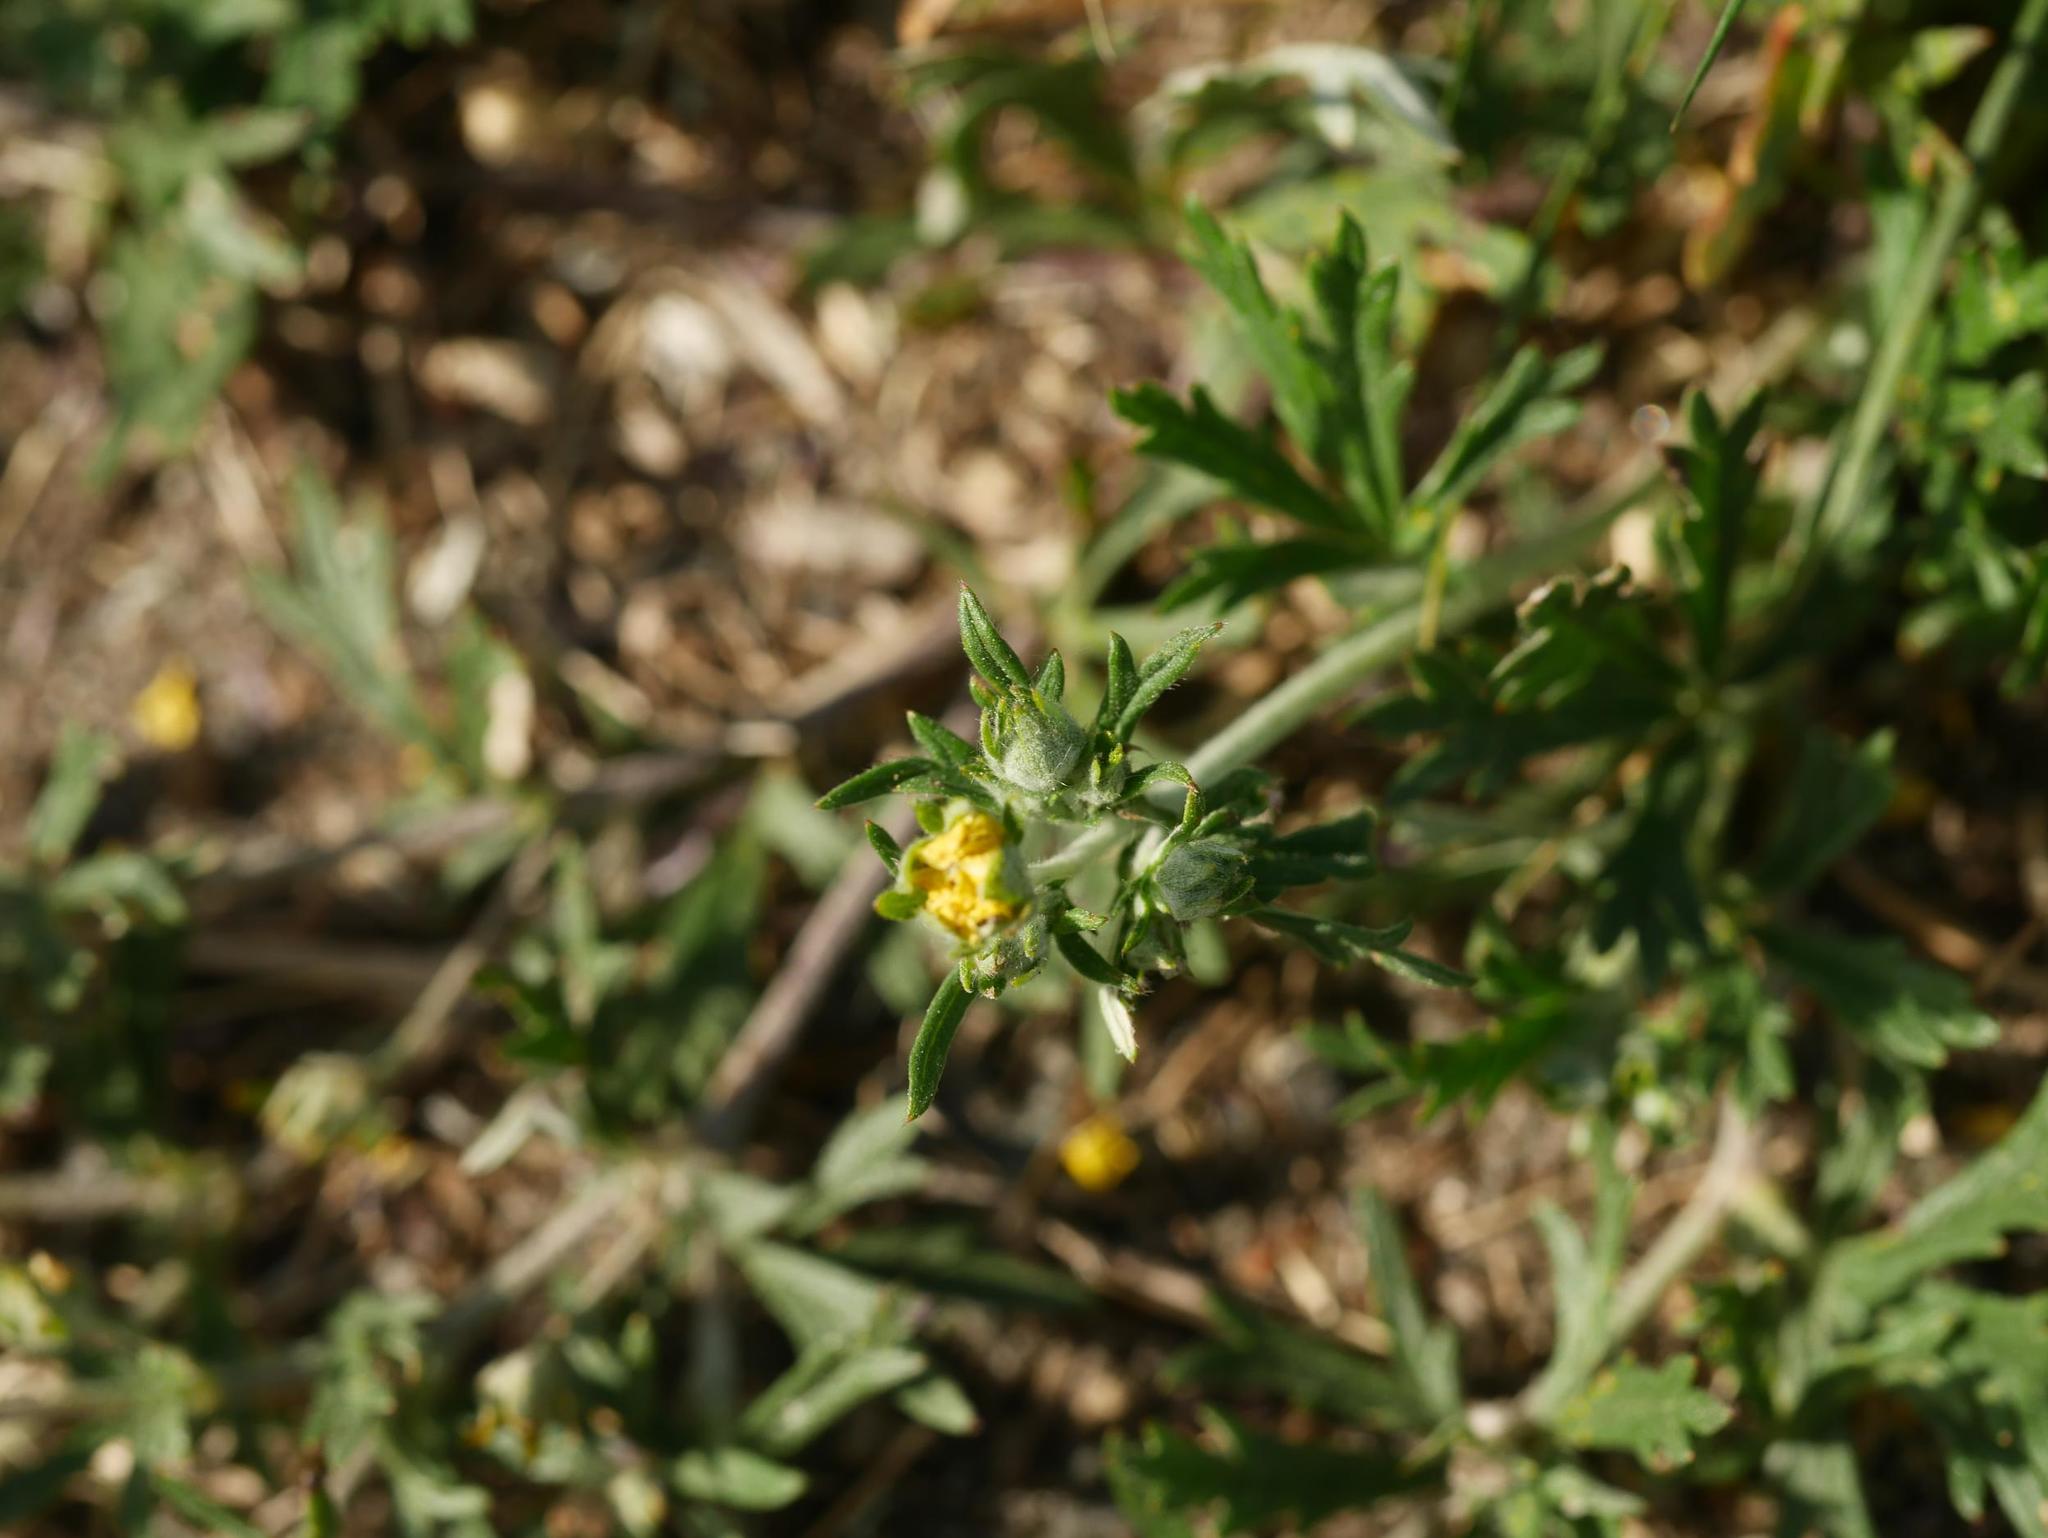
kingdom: Plantae
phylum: Tracheophyta
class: Magnoliopsida
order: Rosales
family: Rosaceae
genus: Potentilla
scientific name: Potentilla argentea
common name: Hoary cinquefoil
